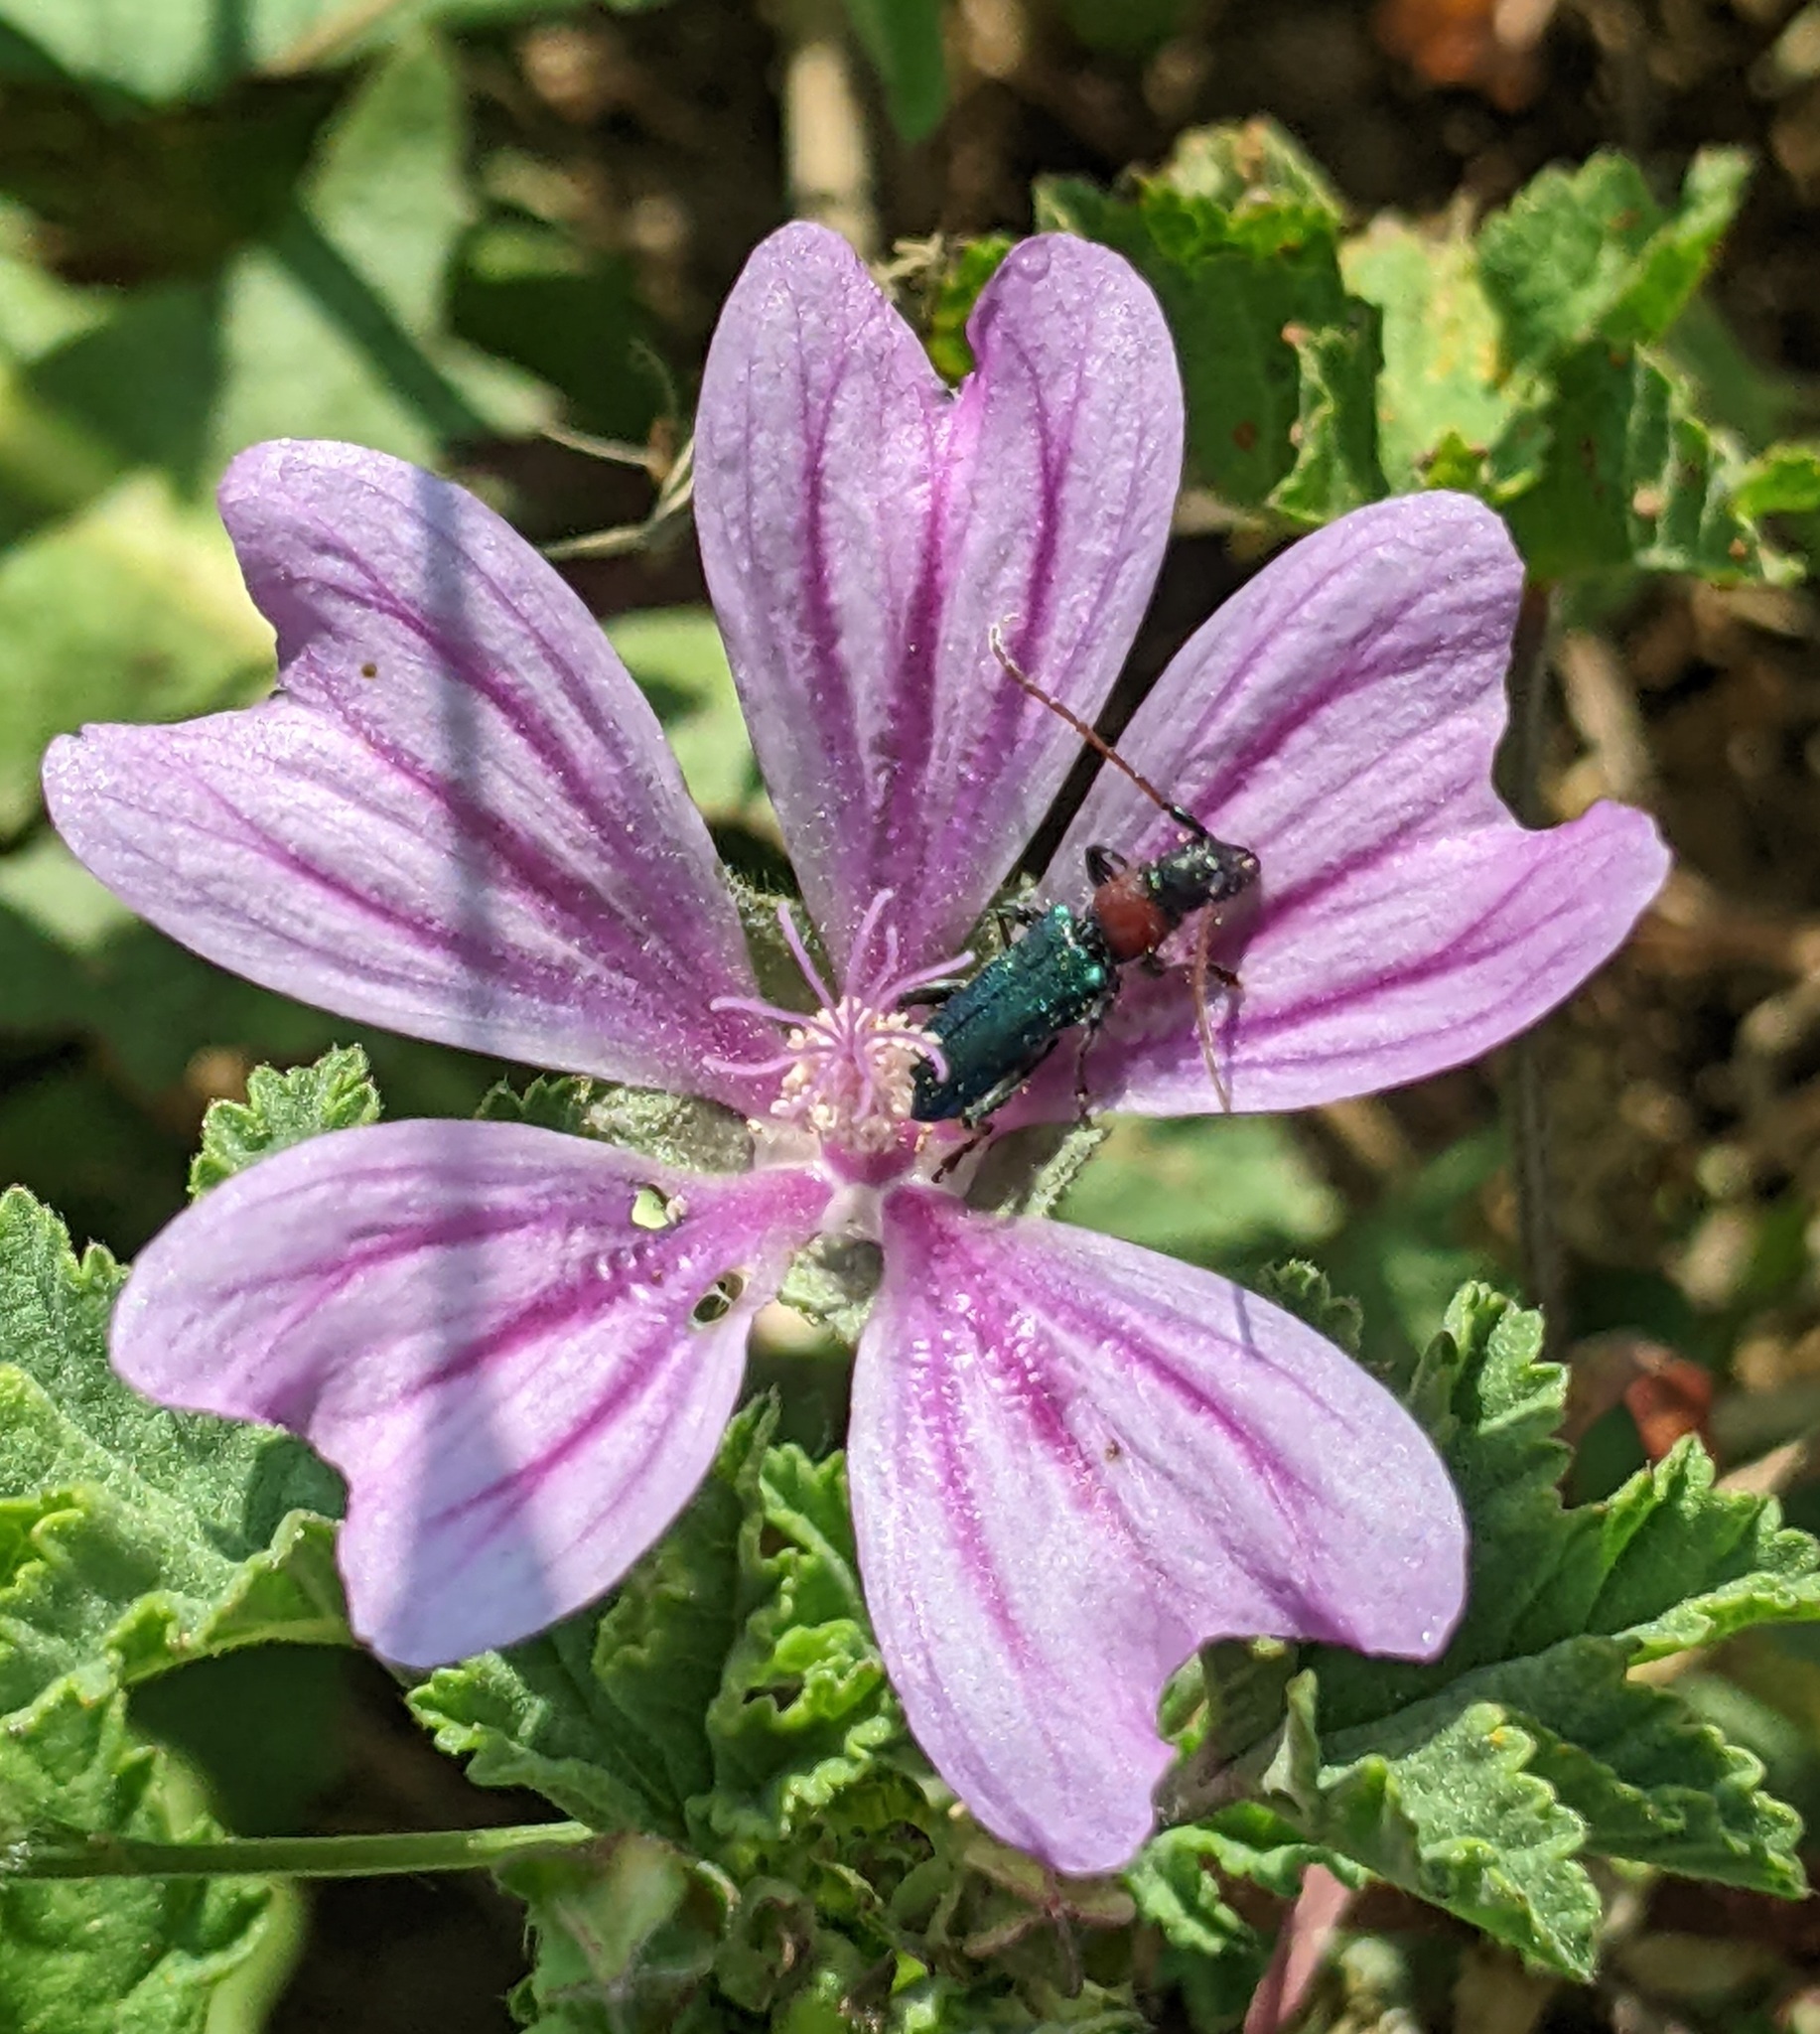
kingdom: Animalia
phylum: Arthropoda
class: Insecta
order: Coleoptera
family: Cerambycidae
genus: Certallum
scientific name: Certallum ebulinum
